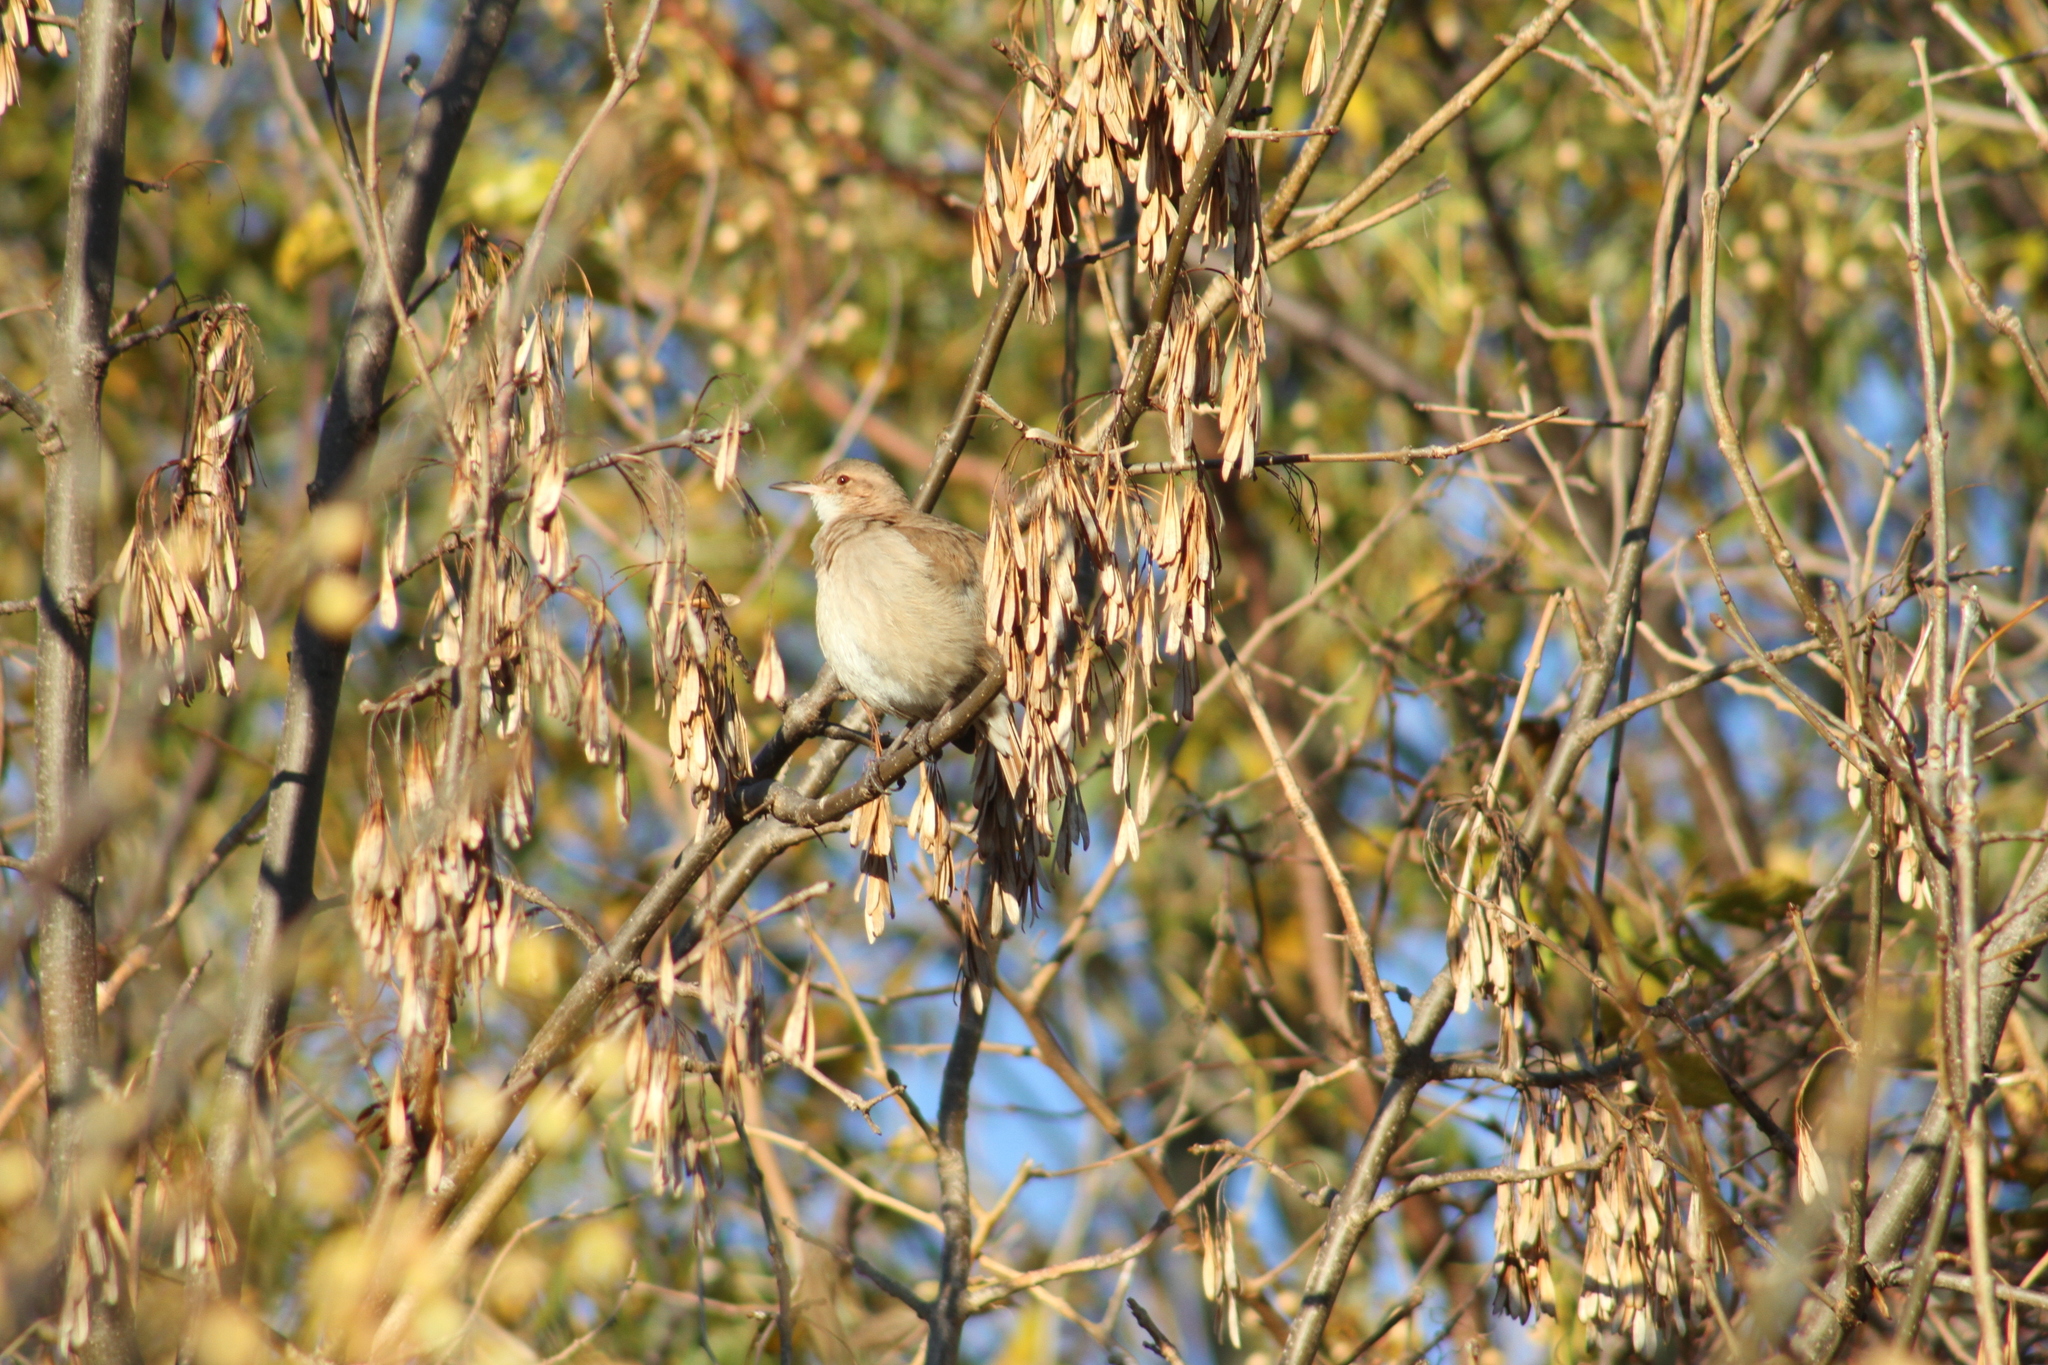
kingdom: Animalia
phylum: Chordata
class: Aves
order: Passeriformes
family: Furnariidae
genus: Furnarius
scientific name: Furnarius rufus
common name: Rufous hornero
